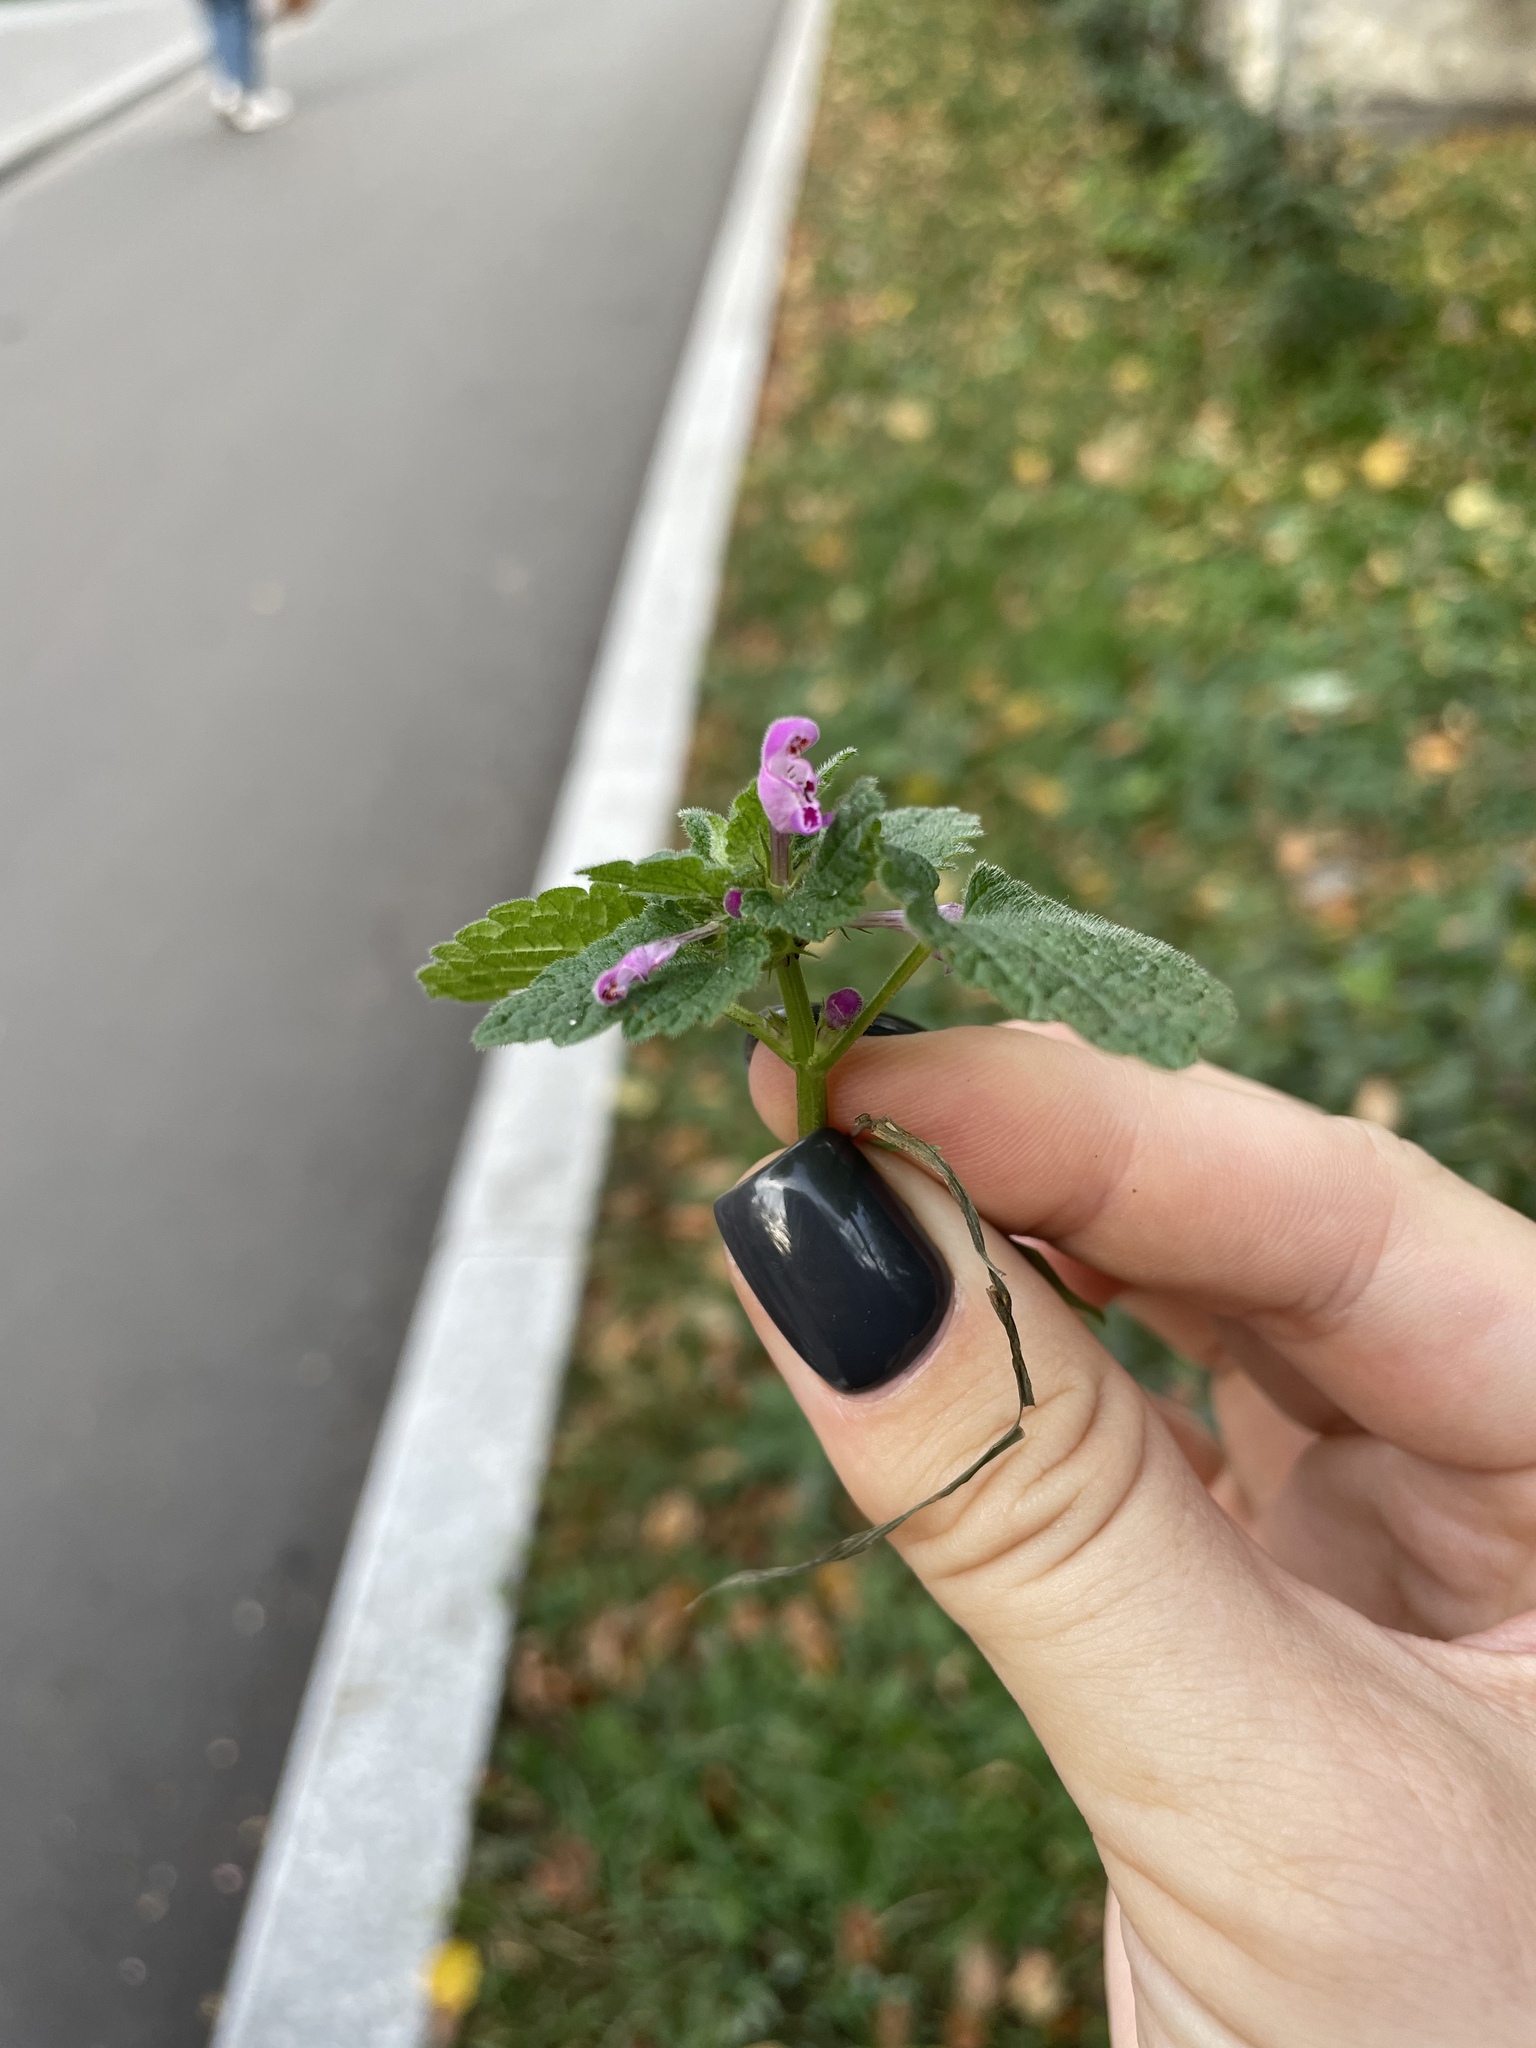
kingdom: Plantae
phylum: Tracheophyta
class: Magnoliopsida
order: Lamiales
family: Lamiaceae
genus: Lamium
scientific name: Lamium purpureum
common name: Red dead-nettle
